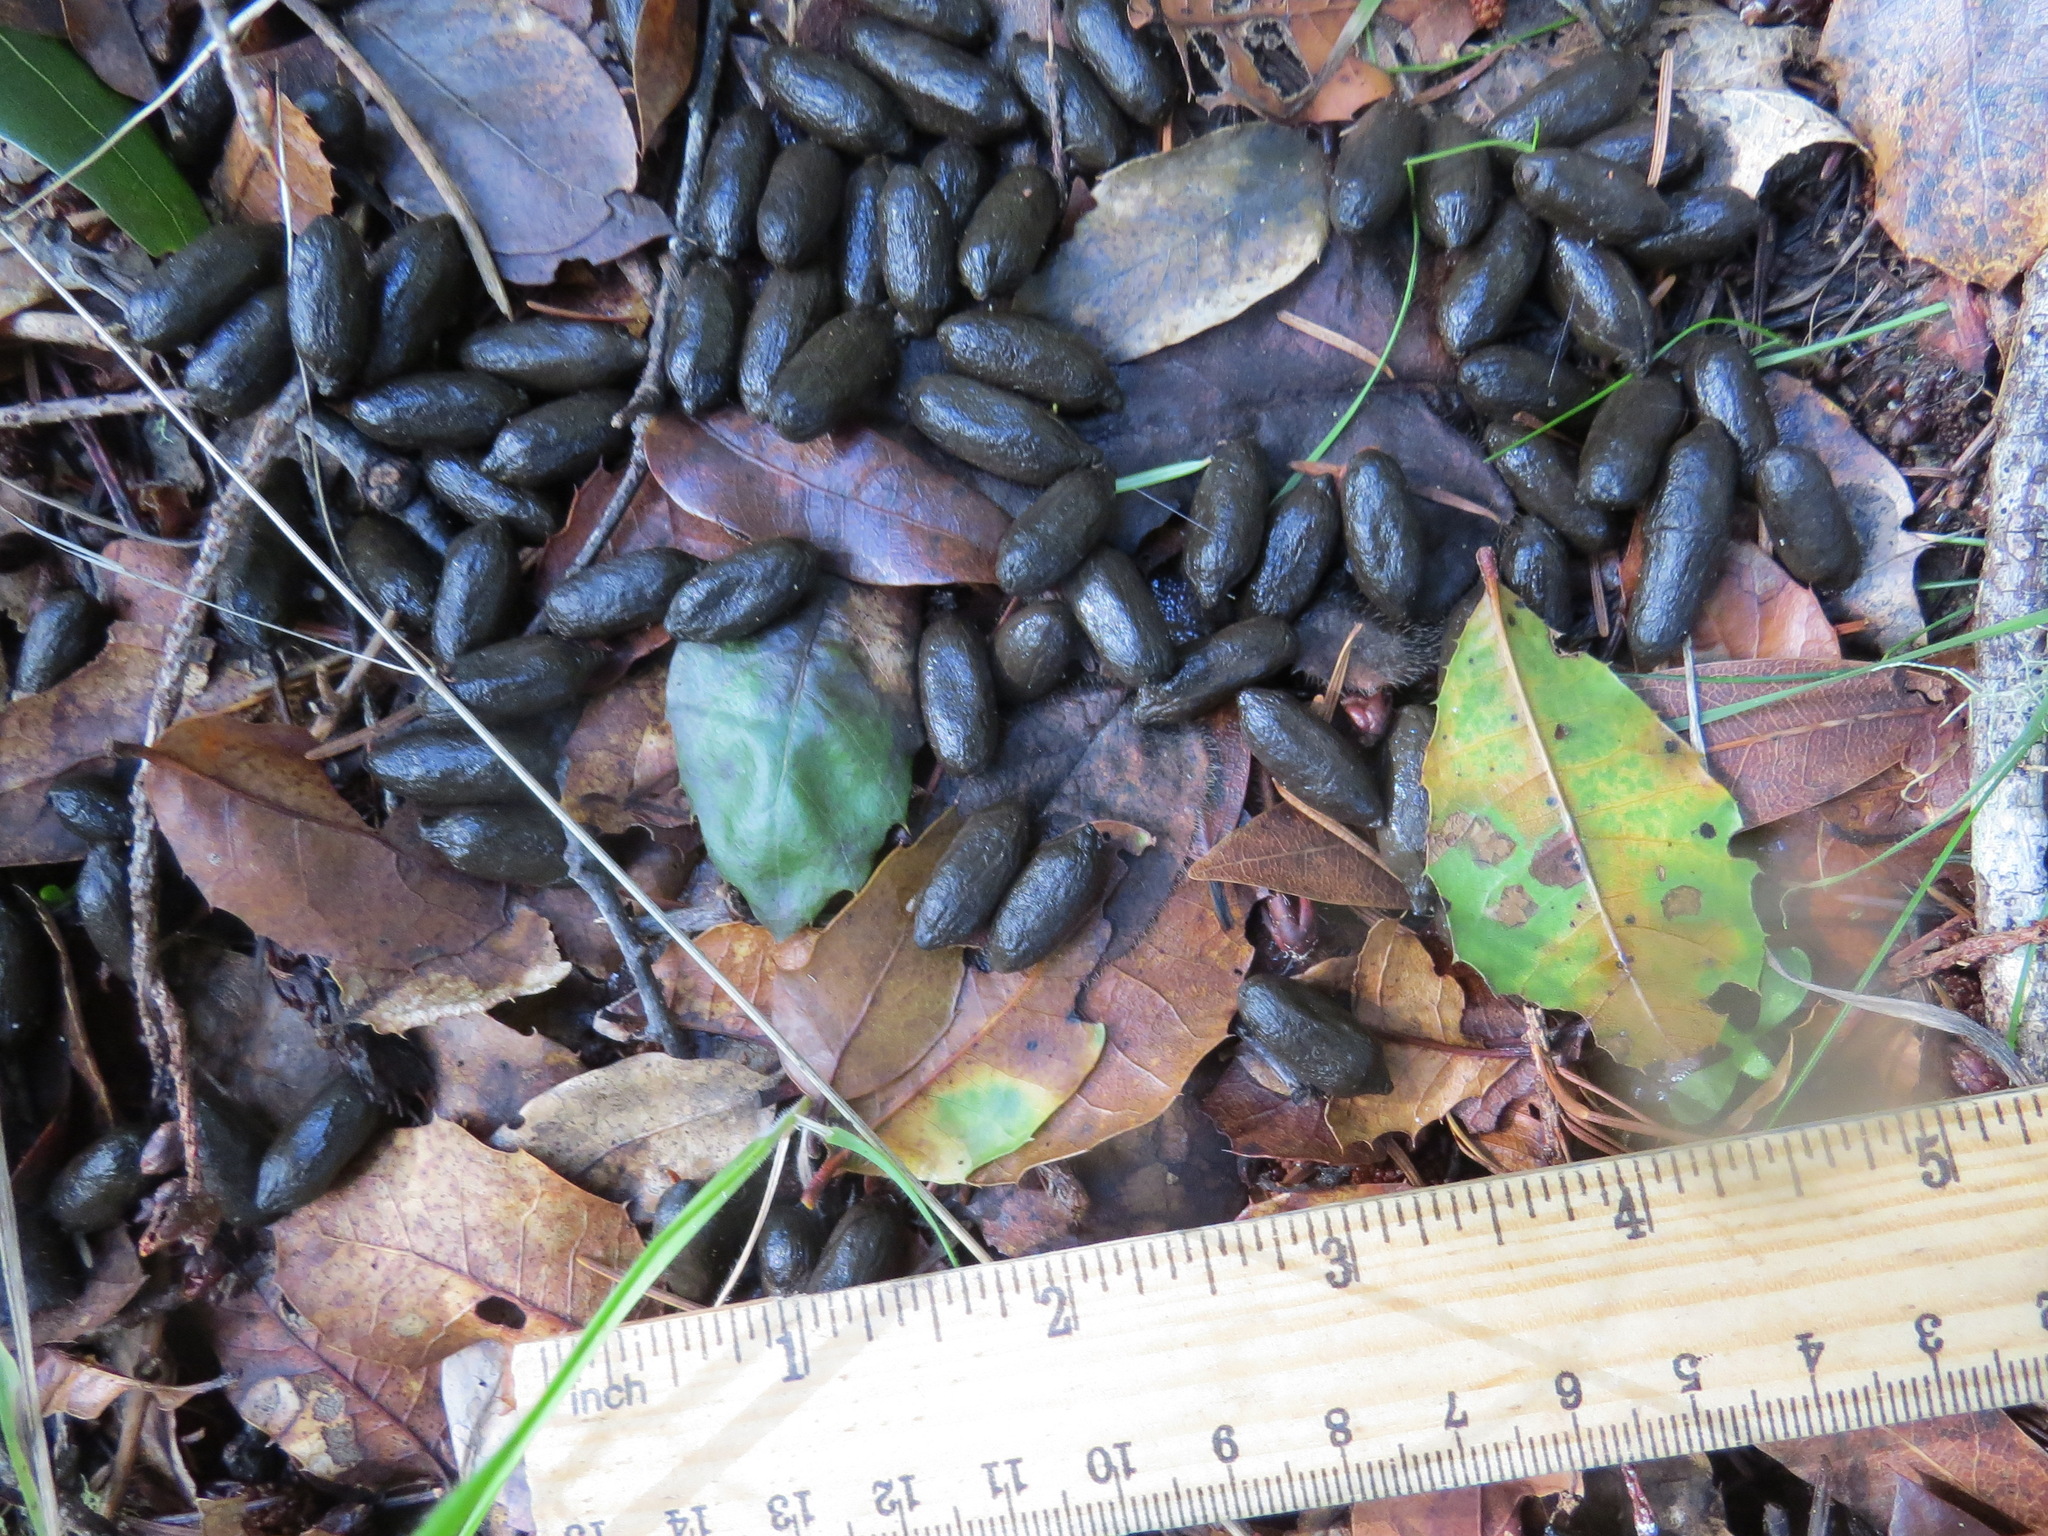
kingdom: Animalia
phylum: Chordata
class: Mammalia
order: Artiodactyla
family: Cervidae
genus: Odocoileus
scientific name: Odocoileus hemionus
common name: Mule deer
